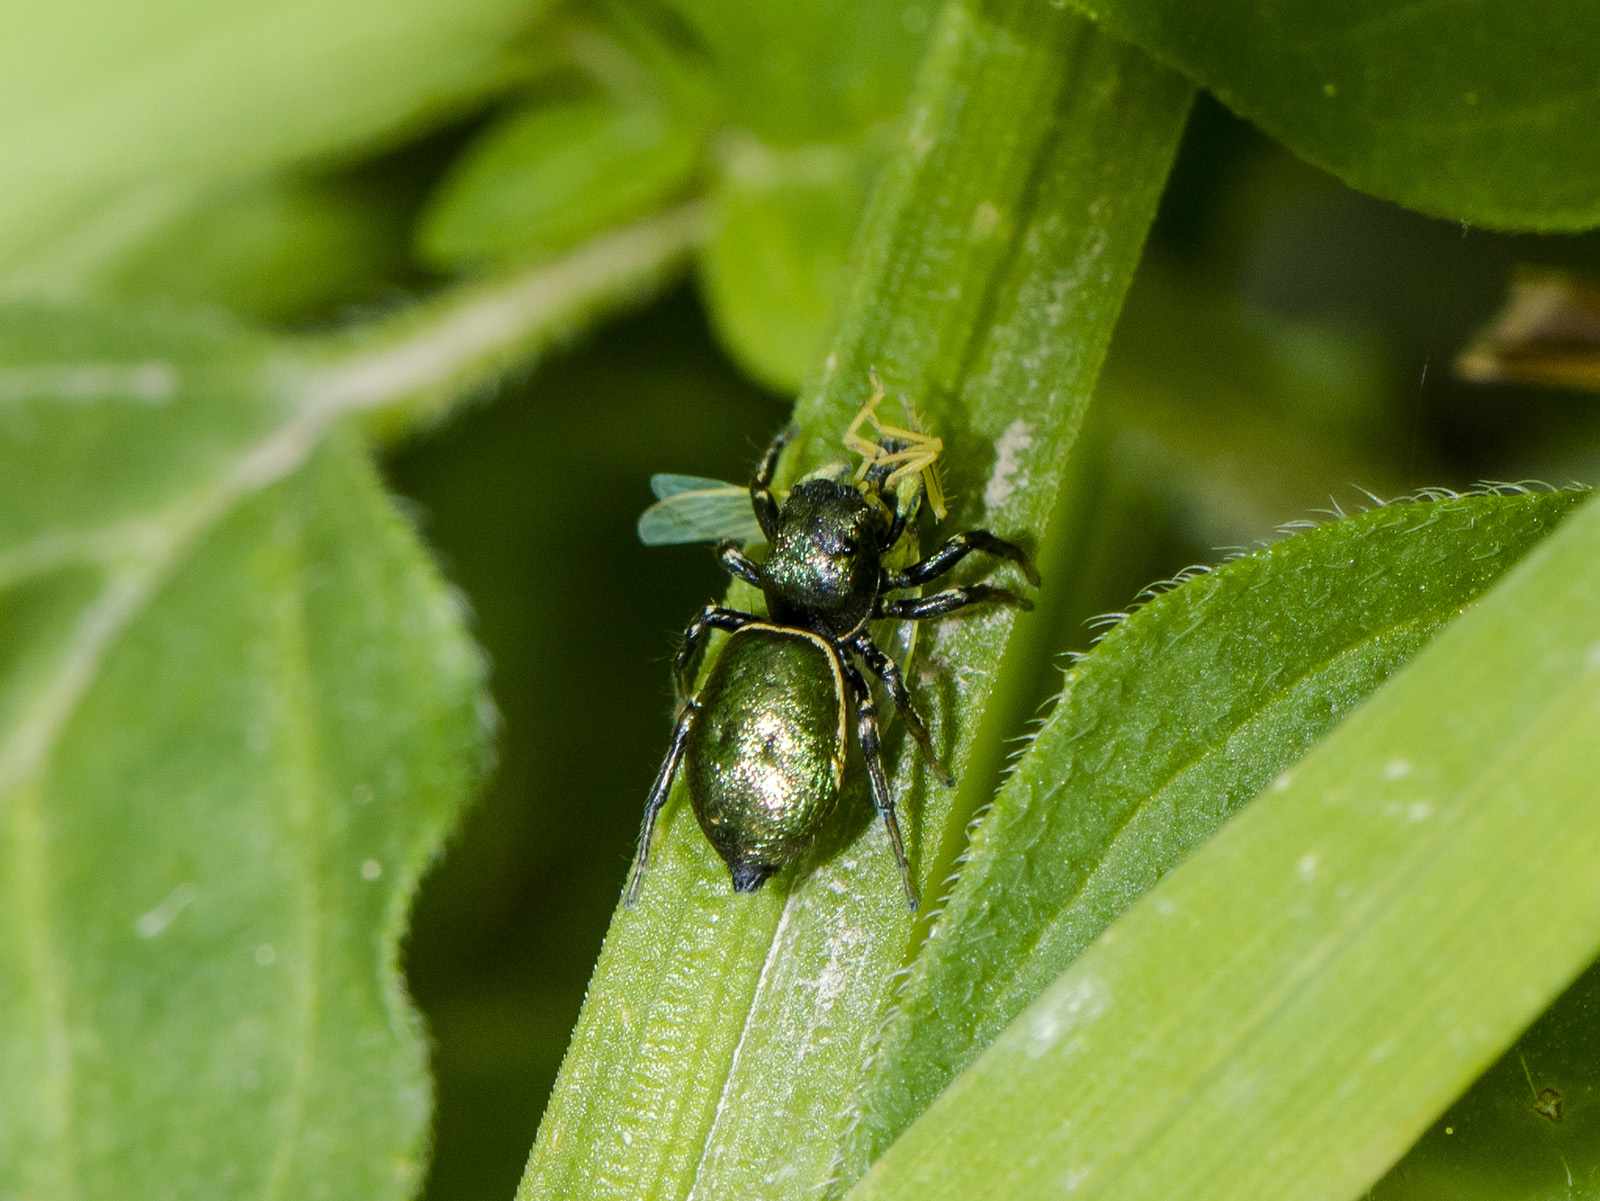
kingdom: Animalia
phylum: Arthropoda
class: Arachnida
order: Araneae
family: Salticidae
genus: Heliophanus
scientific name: Heliophanus auratus
